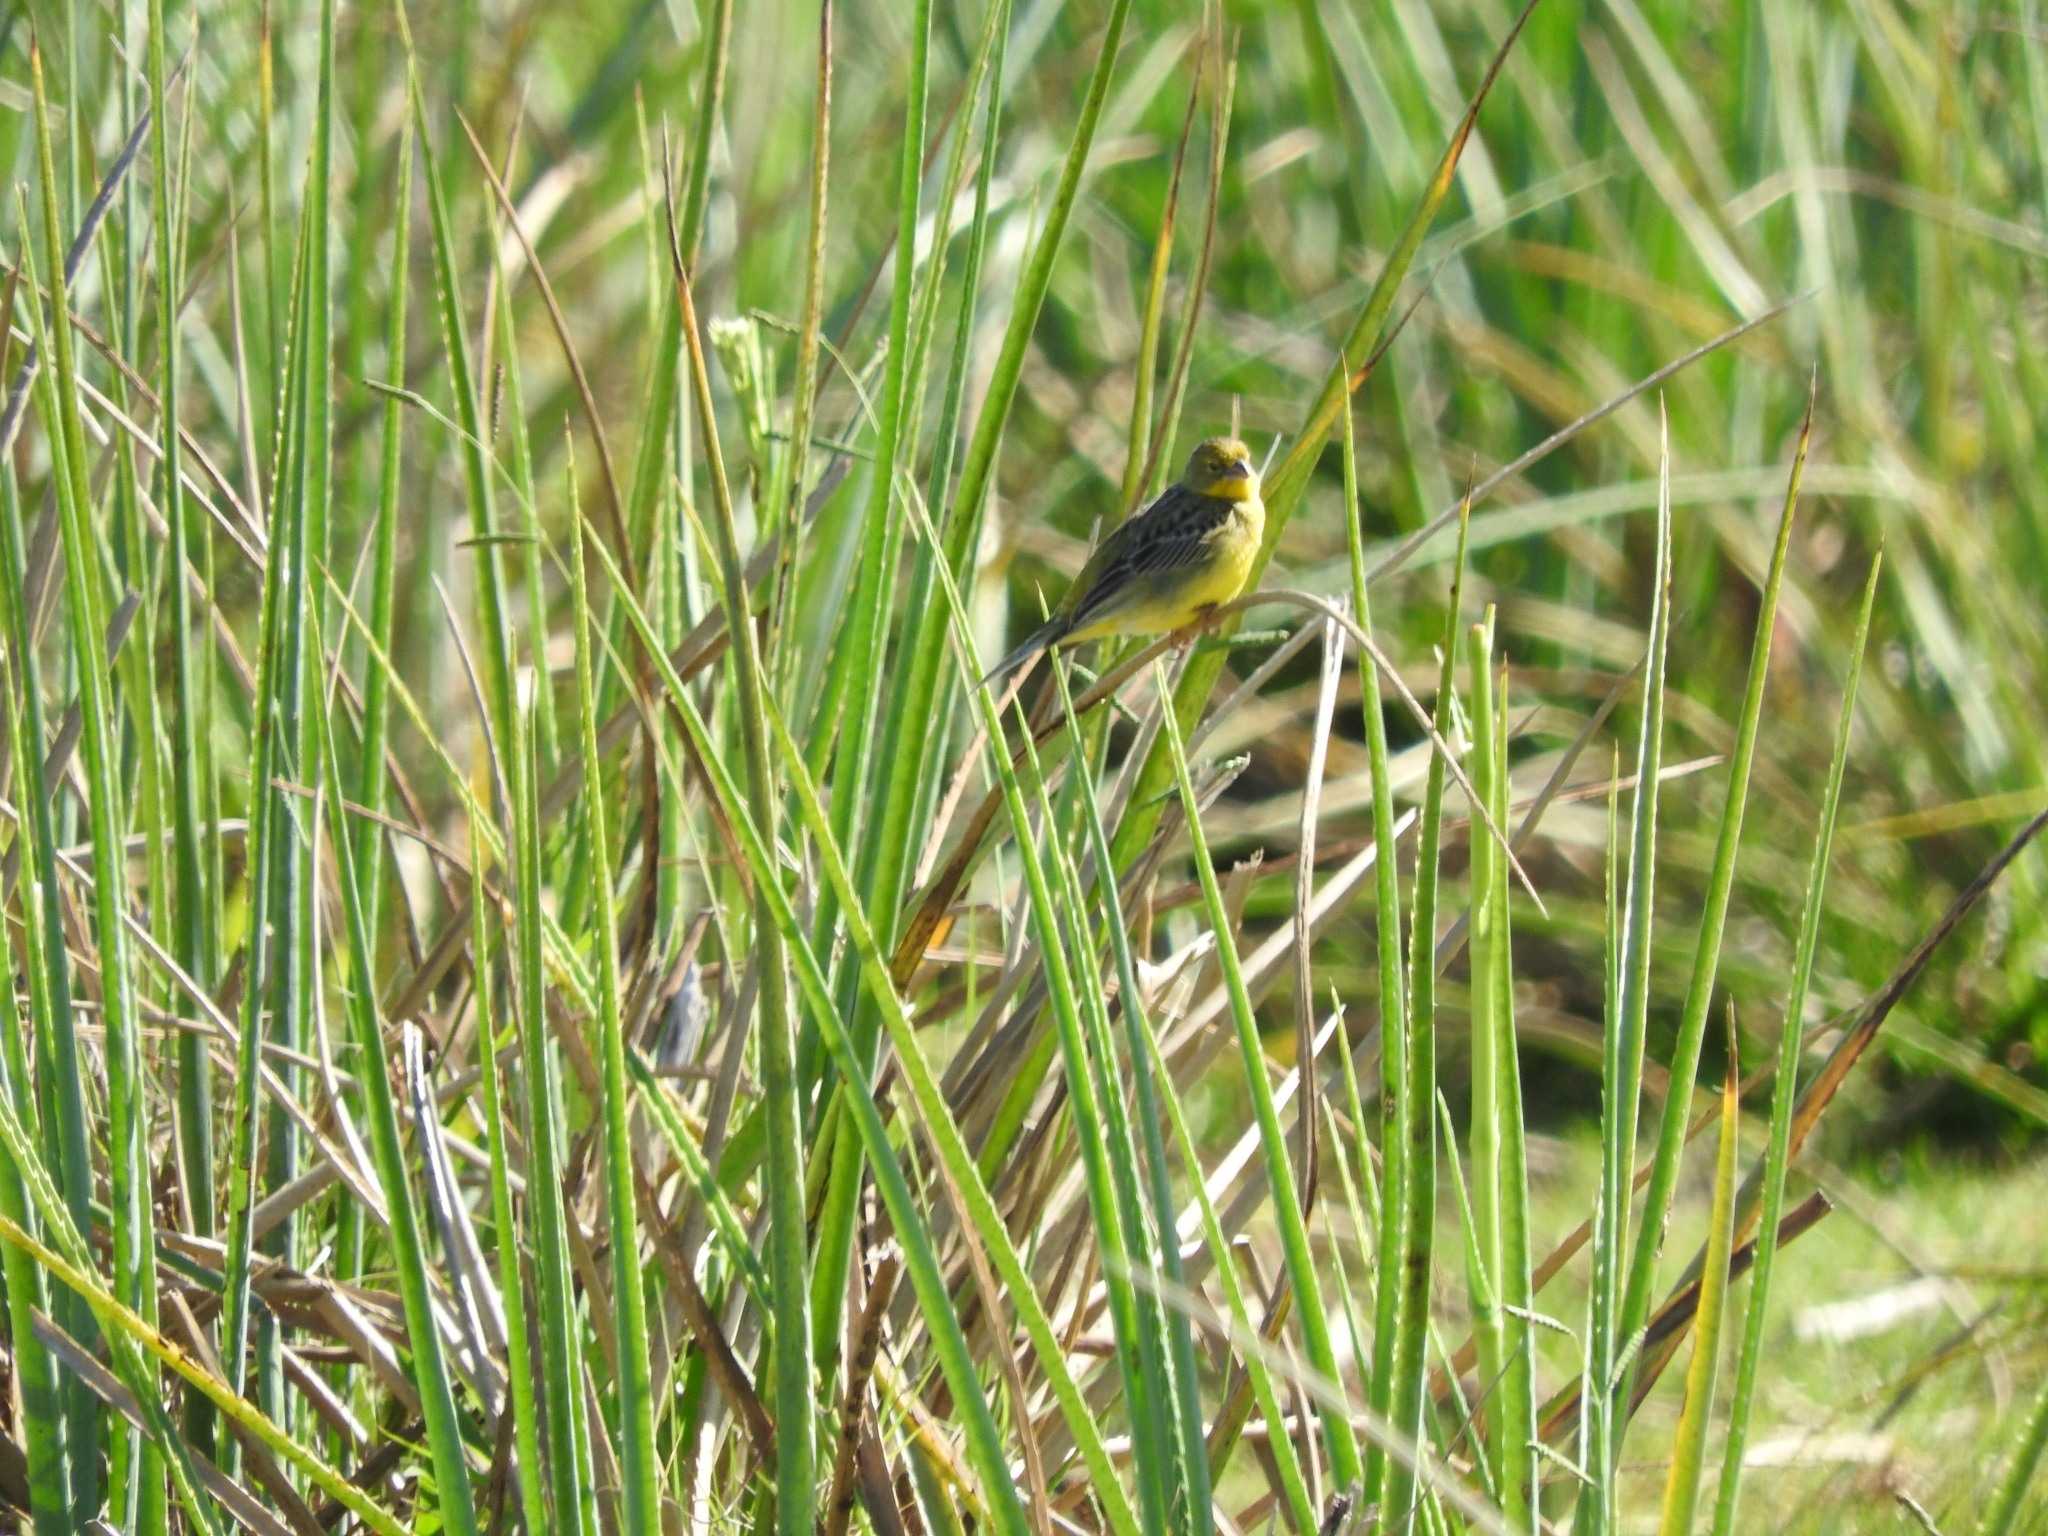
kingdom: Animalia
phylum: Chordata
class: Aves
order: Passeriformes
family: Thraupidae
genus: Sicalis
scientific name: Sicalis luteola
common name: Grassland yellow-finch
